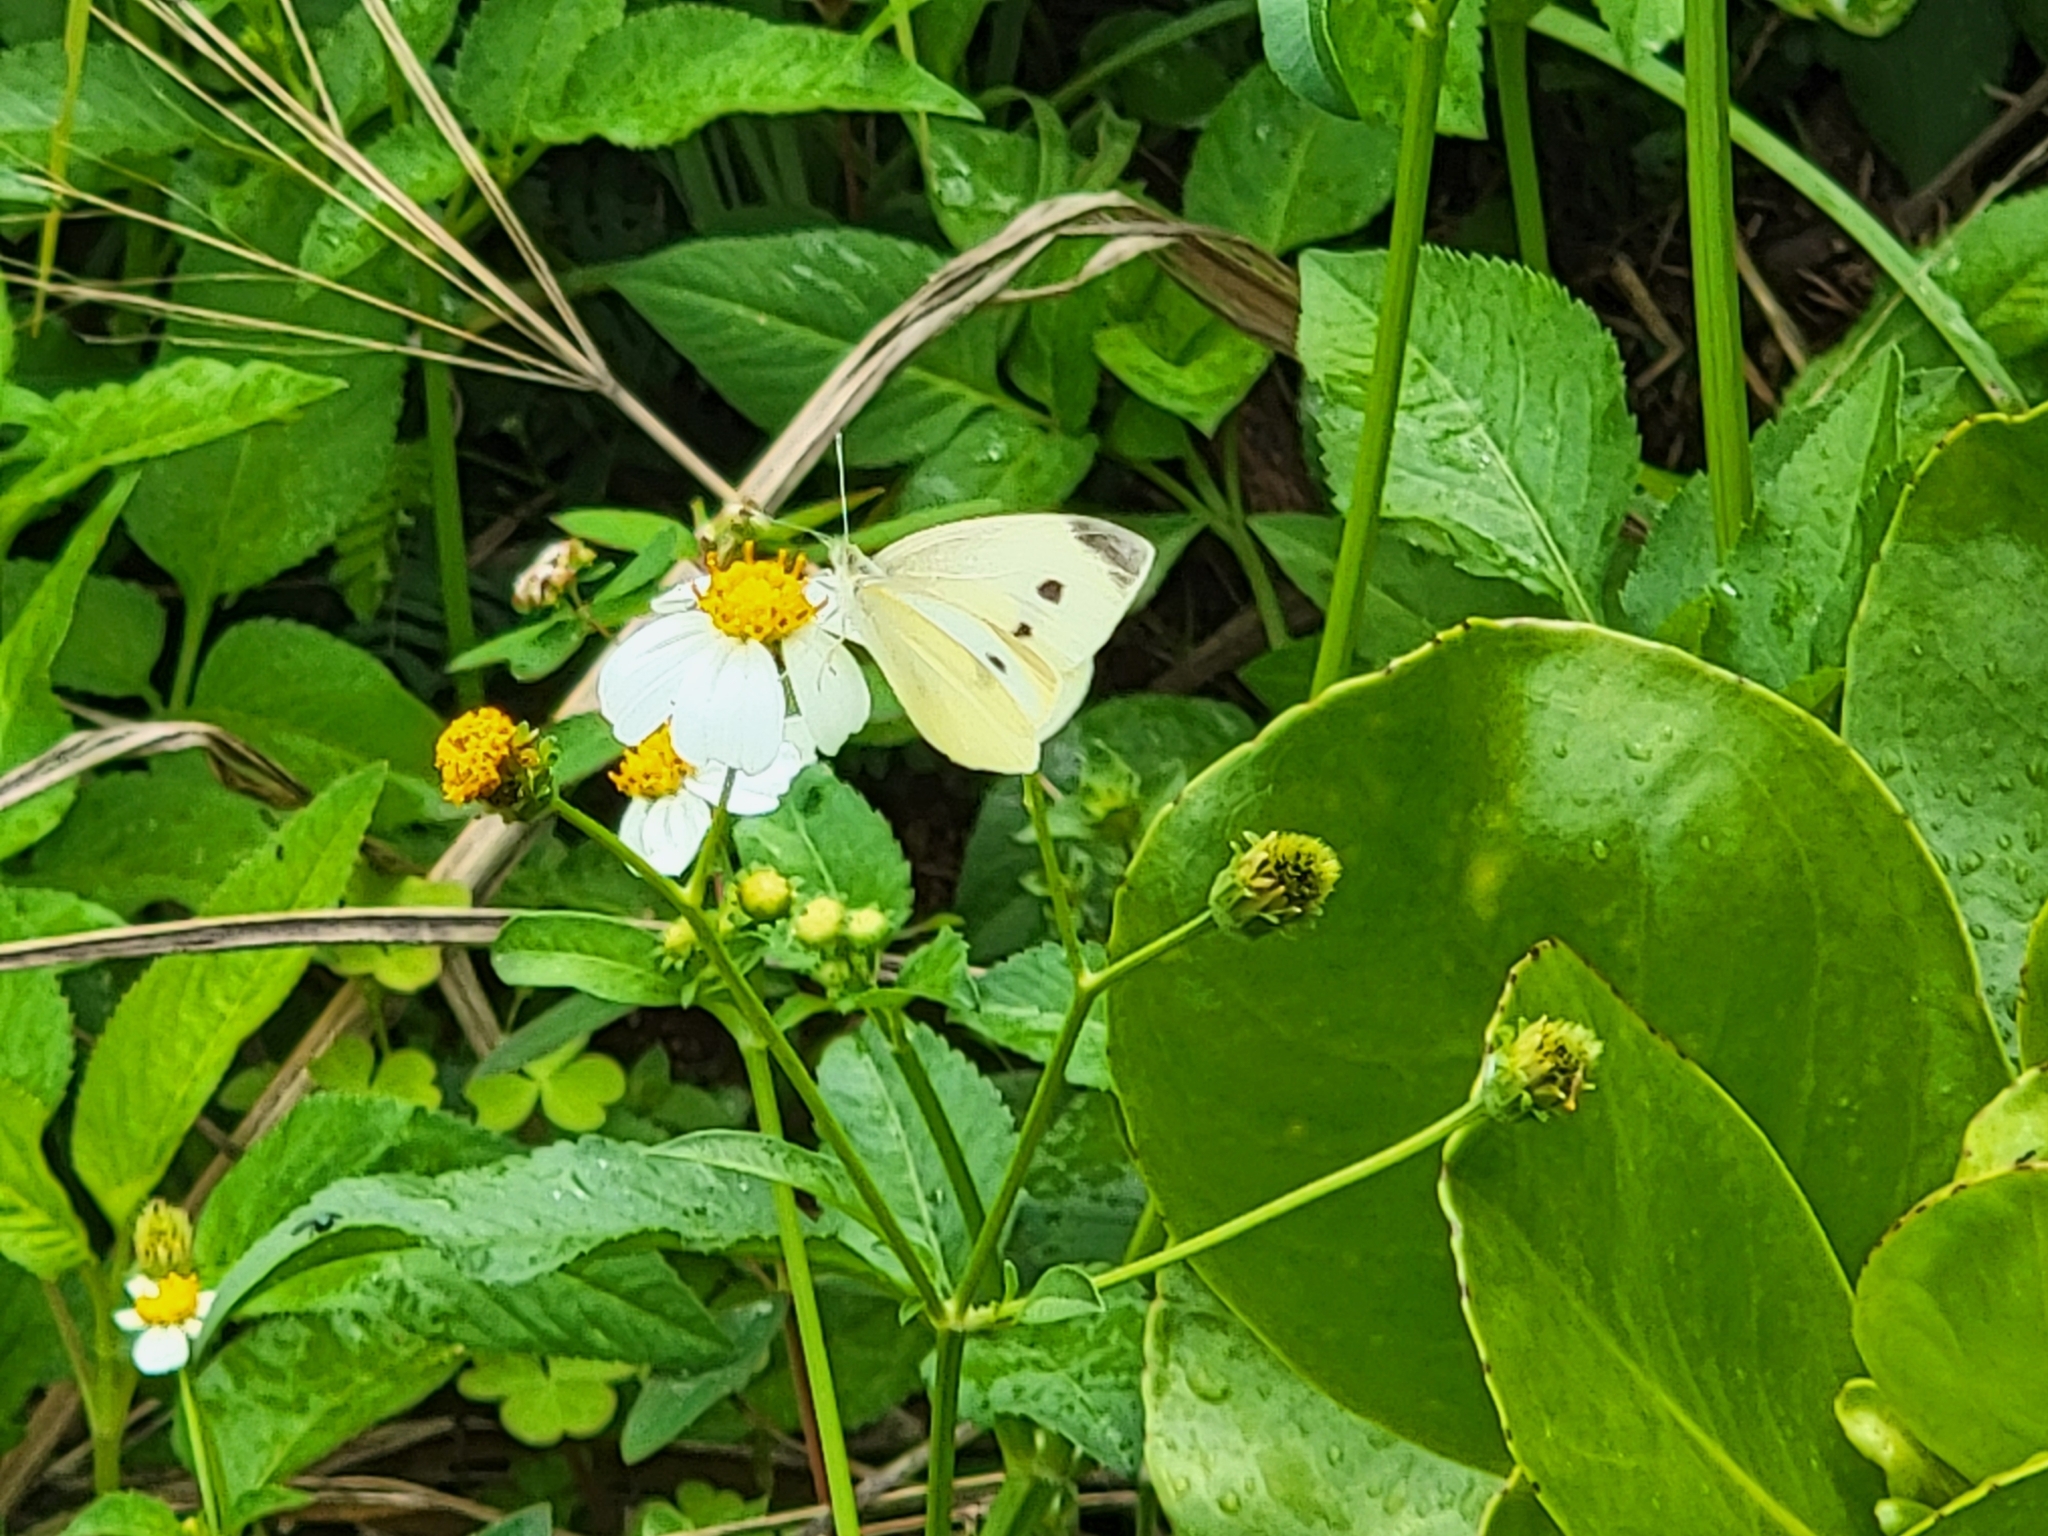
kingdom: Animalia
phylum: Arthropoda
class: Insecta
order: Lepidoptera
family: Pieridae
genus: Pieris
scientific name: Pieris rapae
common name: Small white
